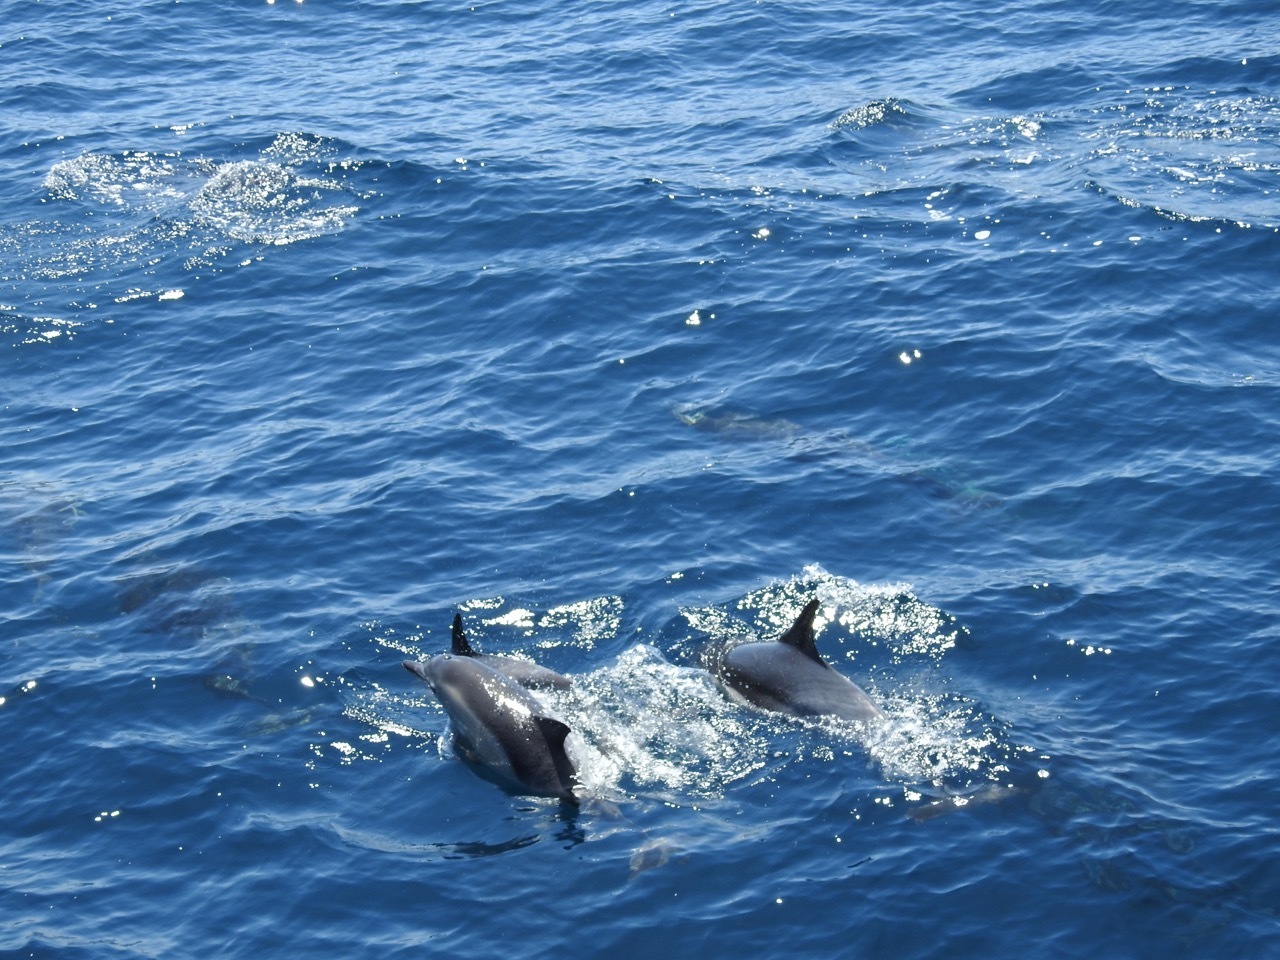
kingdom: Animalia
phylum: Chordata
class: Mammalia
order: Cetacea
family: Delphinidae
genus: Delphinus
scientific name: Delphinus delphis
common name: Common dolphin
